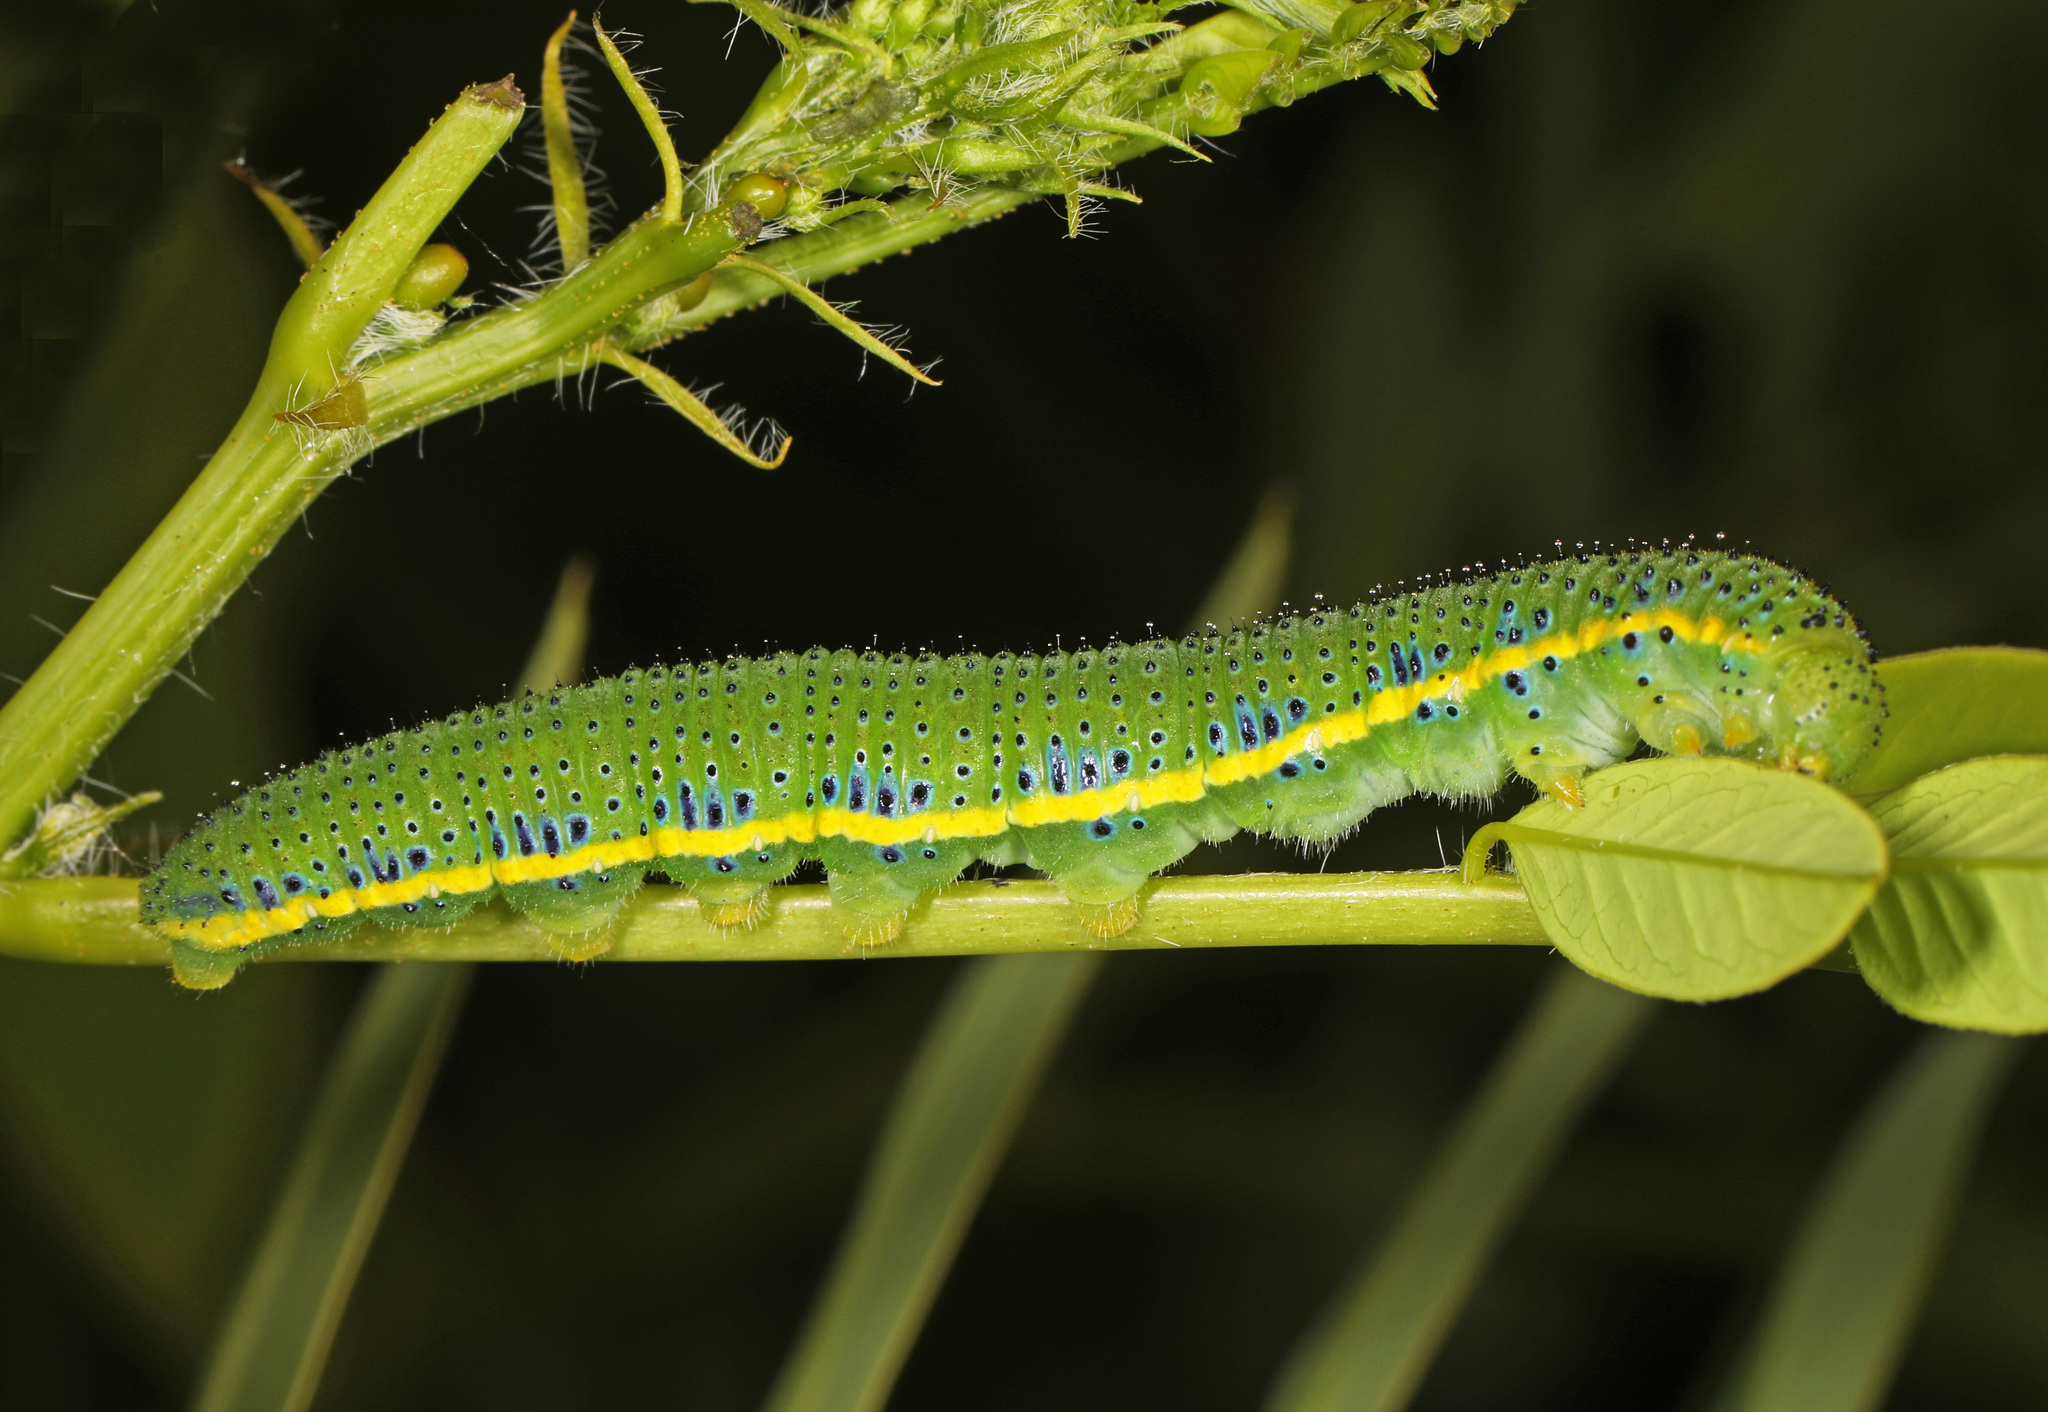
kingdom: Animalia
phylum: Arthropoda
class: Insecta
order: Lepidoptera
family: Pieridae
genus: Phoebis
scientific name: Phoebis sennae
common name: Cloudless sulphur
